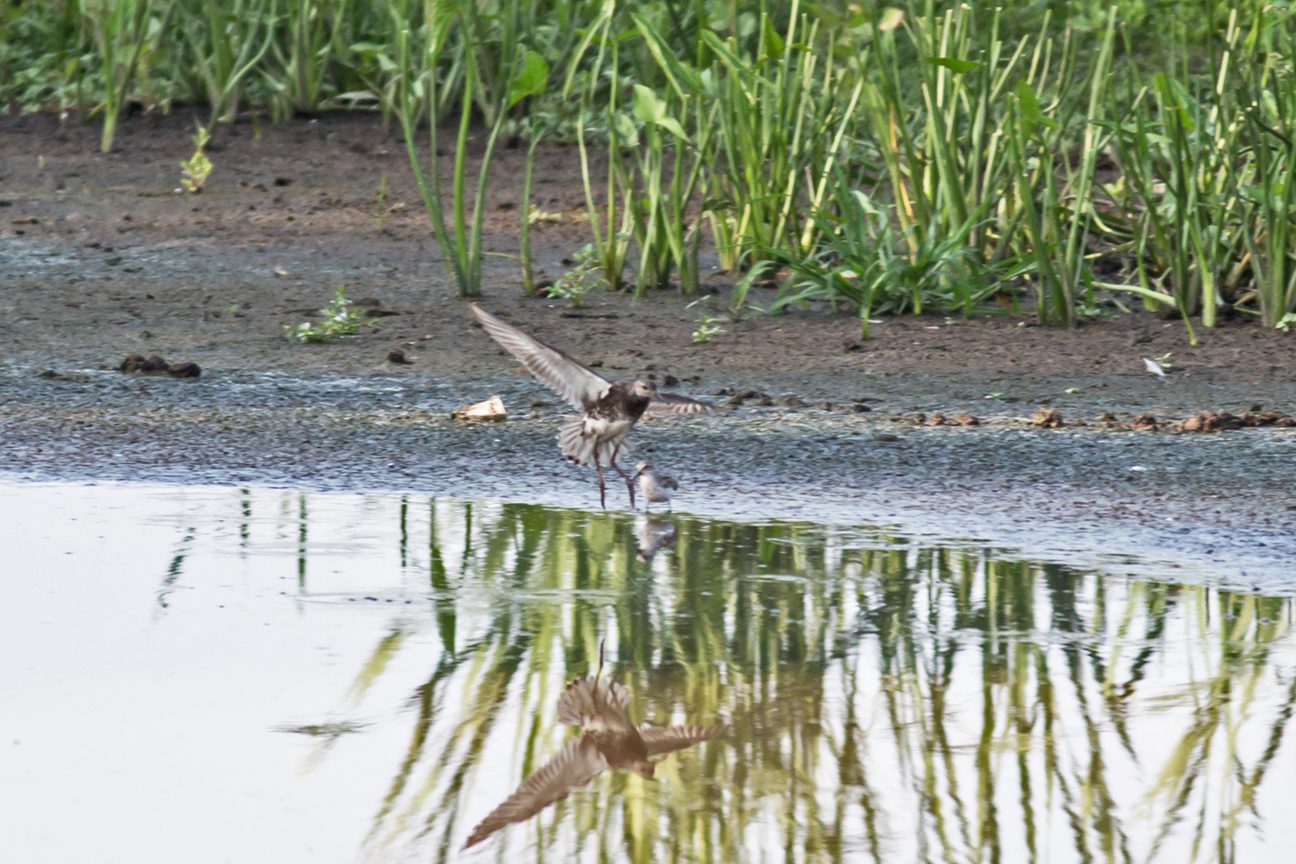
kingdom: Animalia
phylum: Chordata
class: Aves
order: Charadriiformes
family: Scolopacidae
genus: Calidris
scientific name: Calidris pugnax
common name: Ruff
